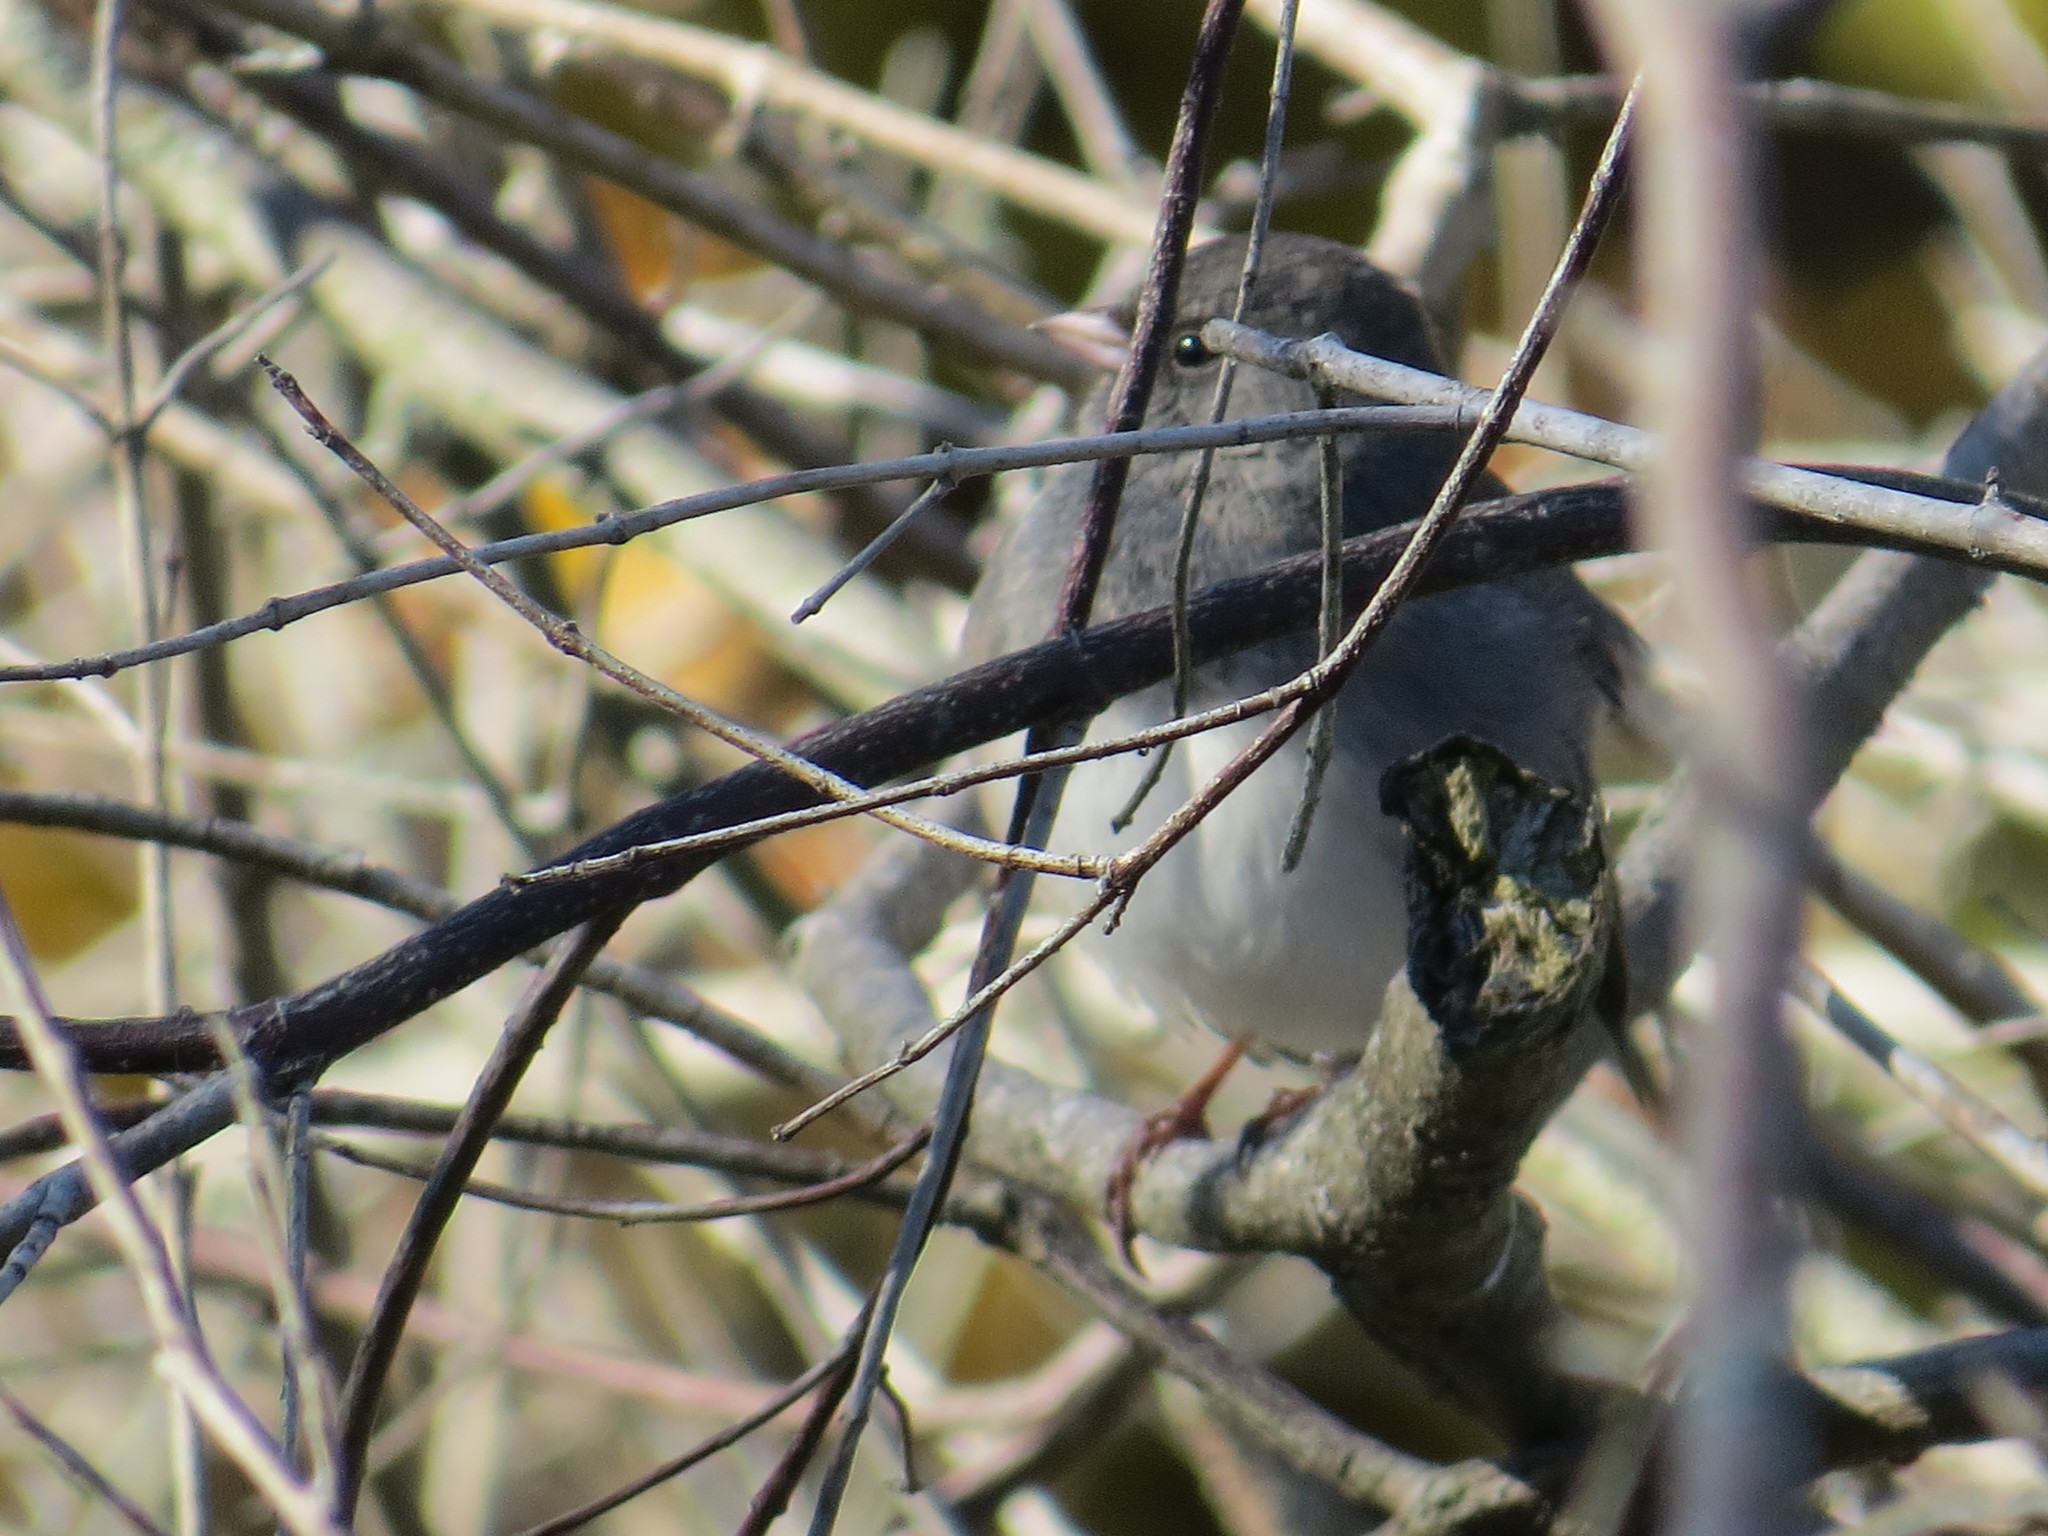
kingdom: Animalia
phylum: Chordata
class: Aves
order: Passeriformes
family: Passerellidae
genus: Junco
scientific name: Junco hyemalis
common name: Dark-eyed junco
